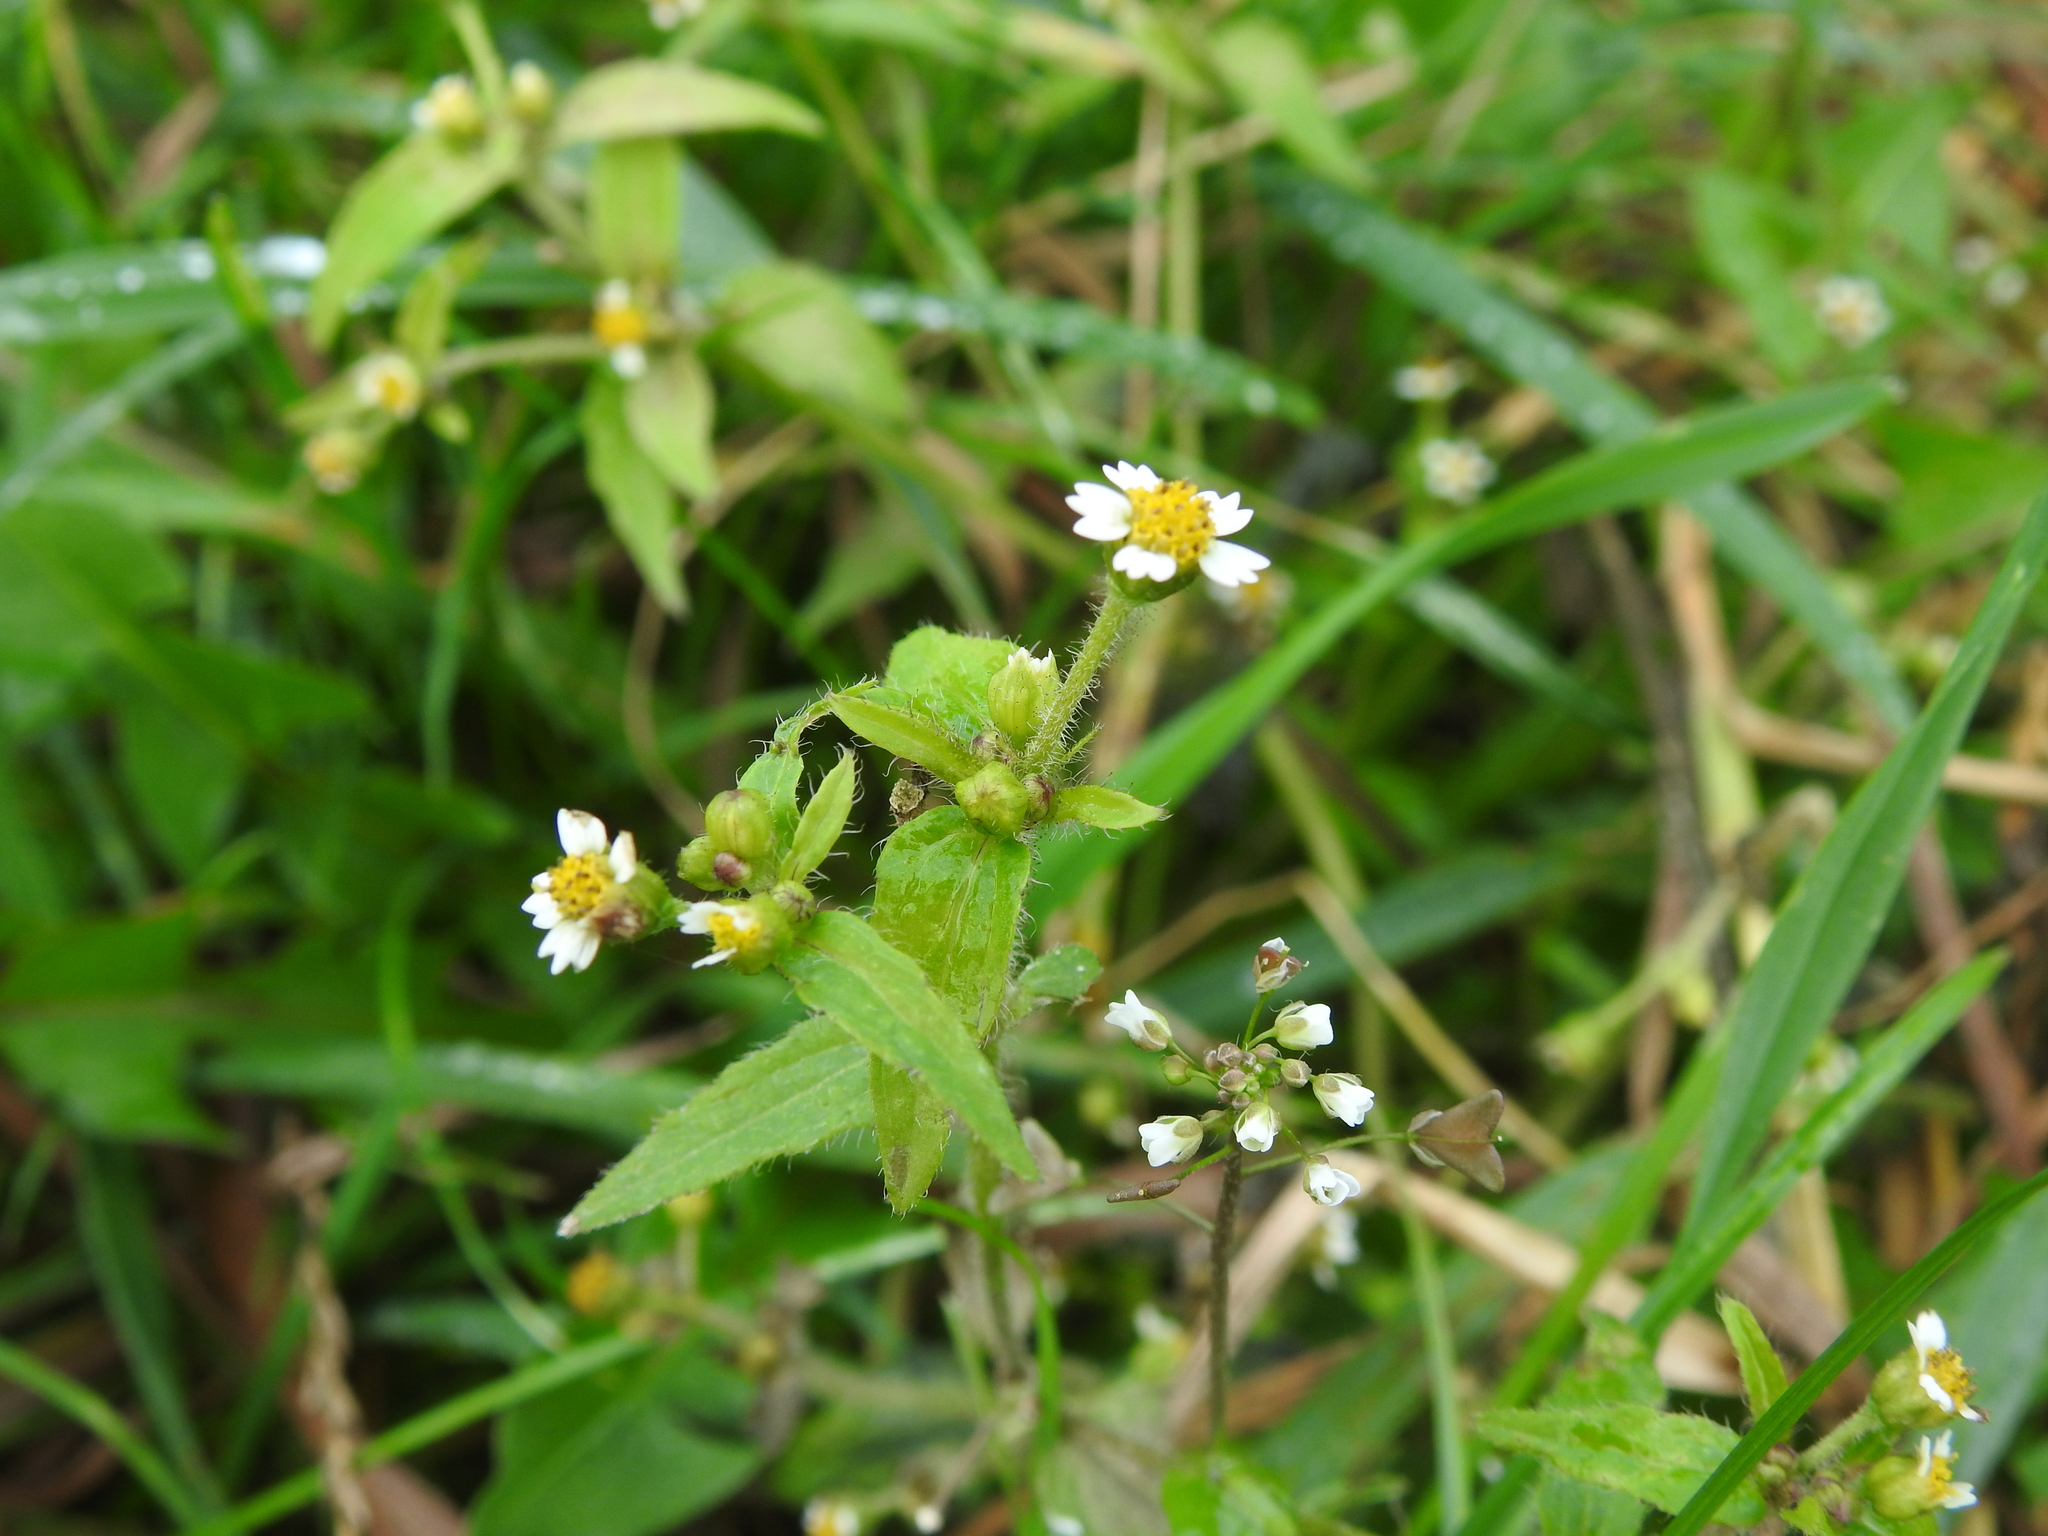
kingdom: Plantae
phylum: Tracheophyta
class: Magnoliopsida
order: Asterales
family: Asteraceae
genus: Galinsoga
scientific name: Galinsoga quadriradiata
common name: Shaggy soldier
